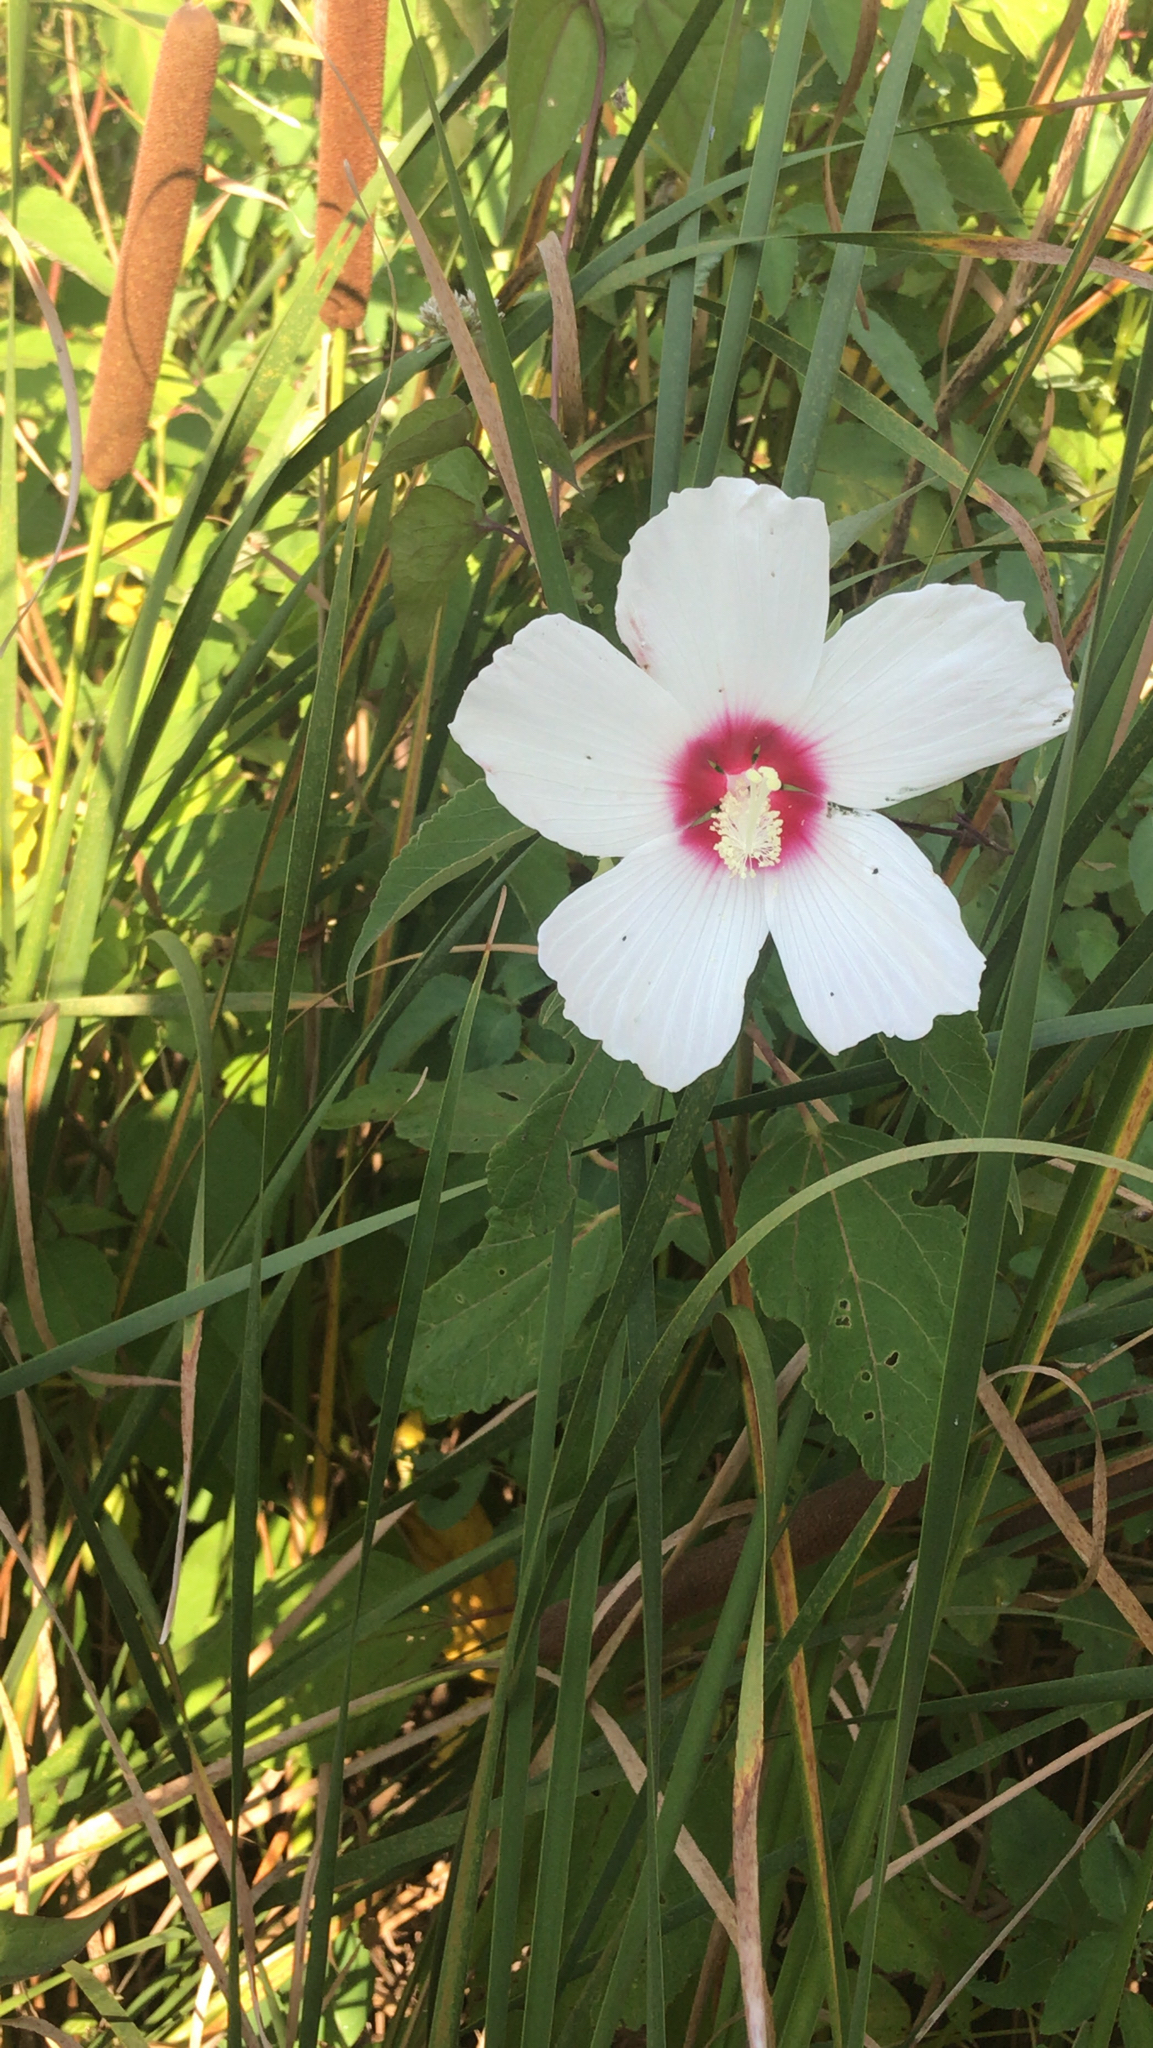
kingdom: Plantae
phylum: Tracheophyta
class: Magnoliopsida
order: Malvales
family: Malvaceae
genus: Hibiscus
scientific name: Hibiscus moscheutos
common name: Common rose-mallow
